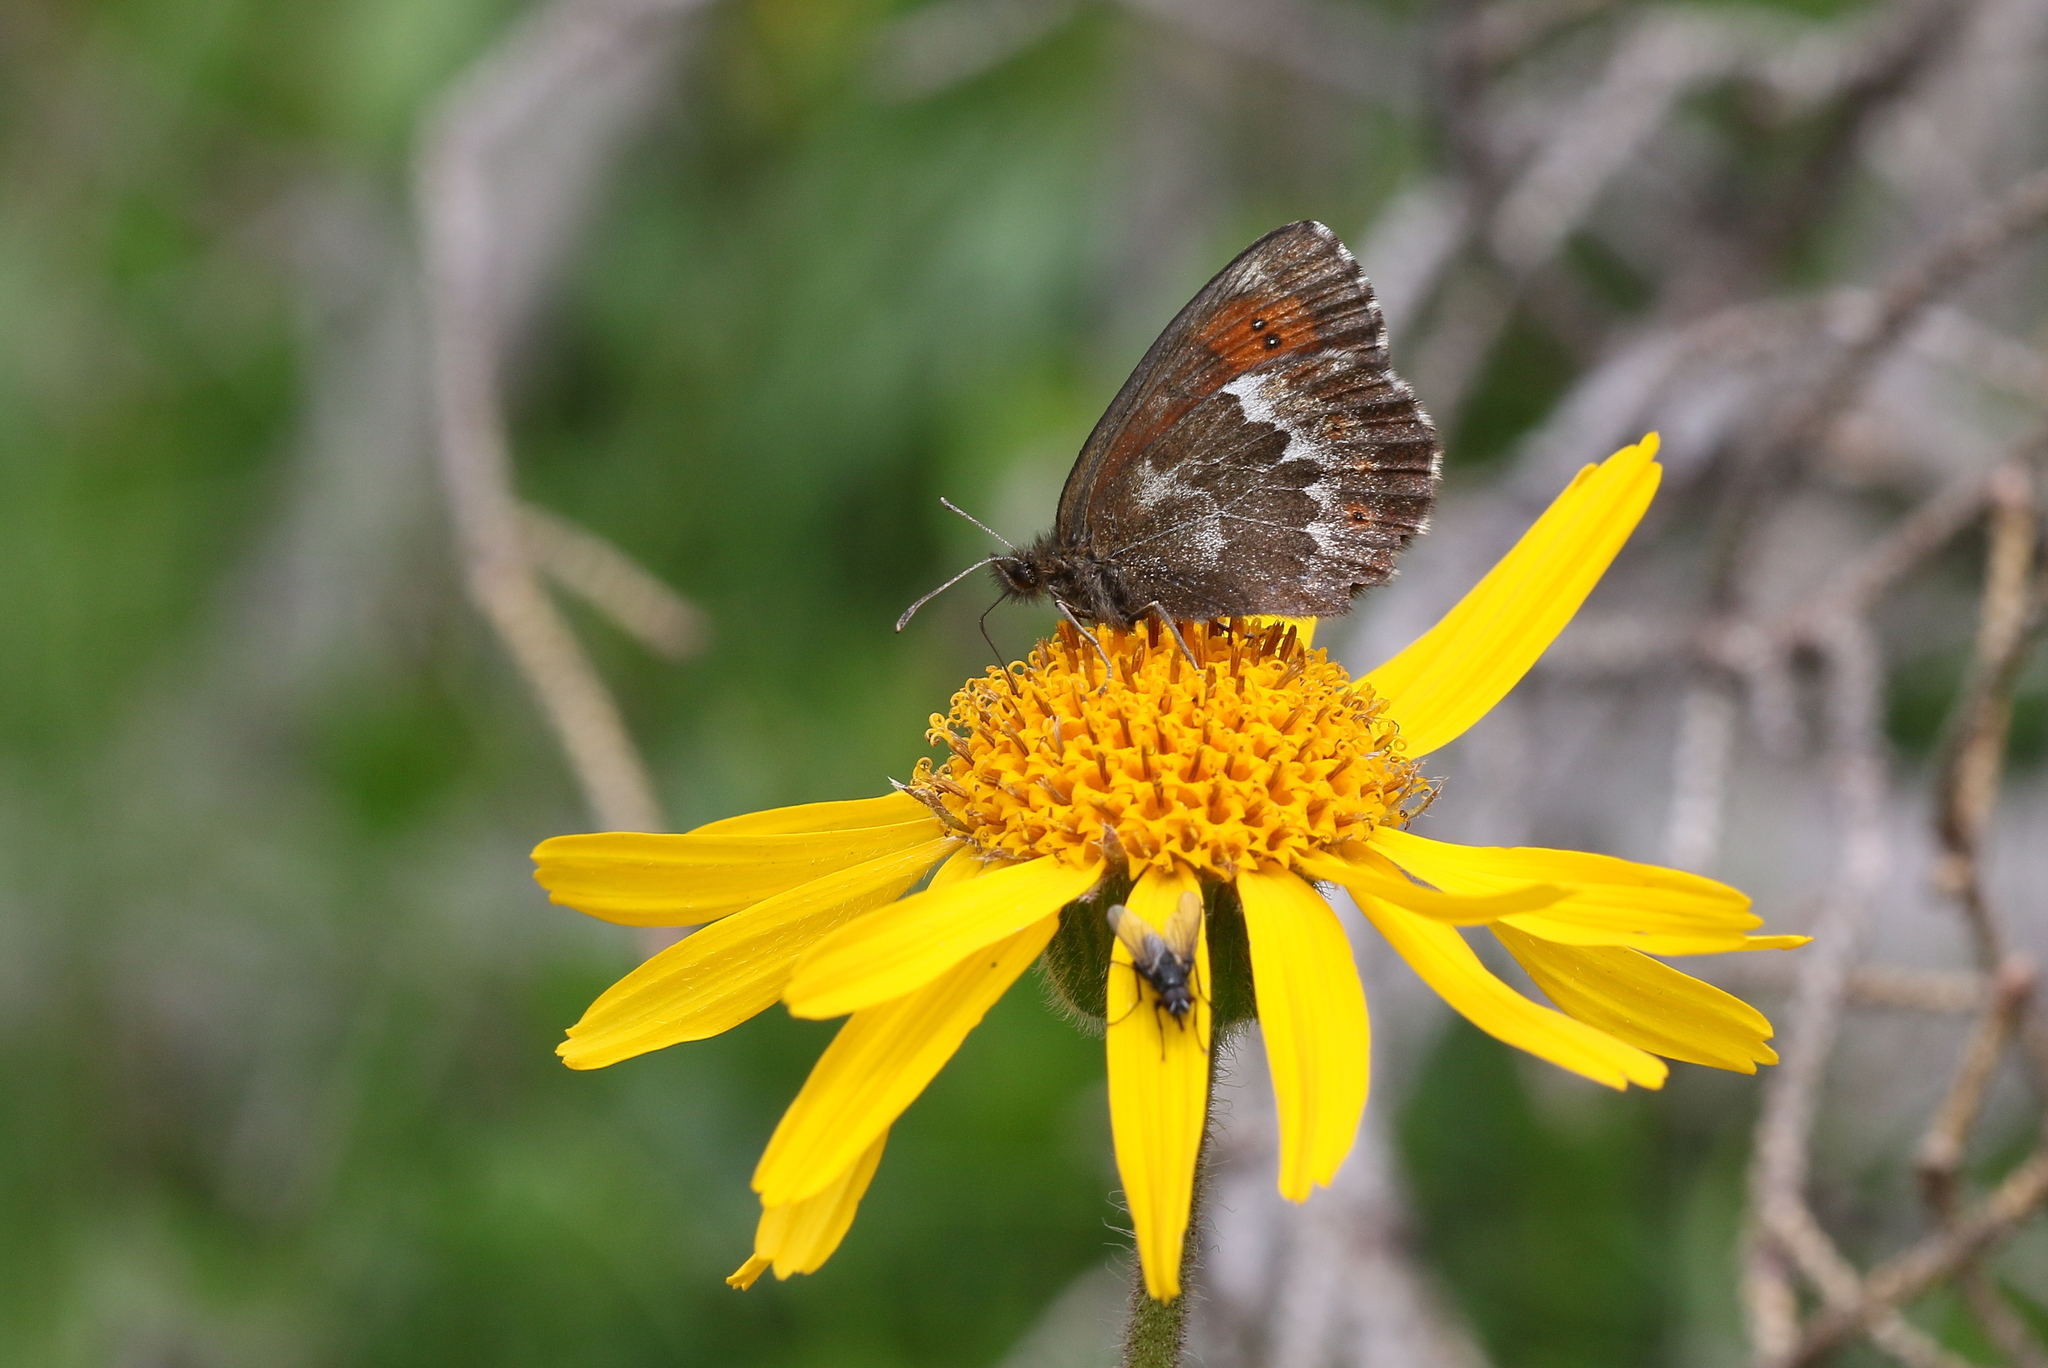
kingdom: Animalia
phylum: Arthropoda
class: Insecta
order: Lepidoptera
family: Nymphalidae
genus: Erebia
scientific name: Erebia euryale
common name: Large ringlet
